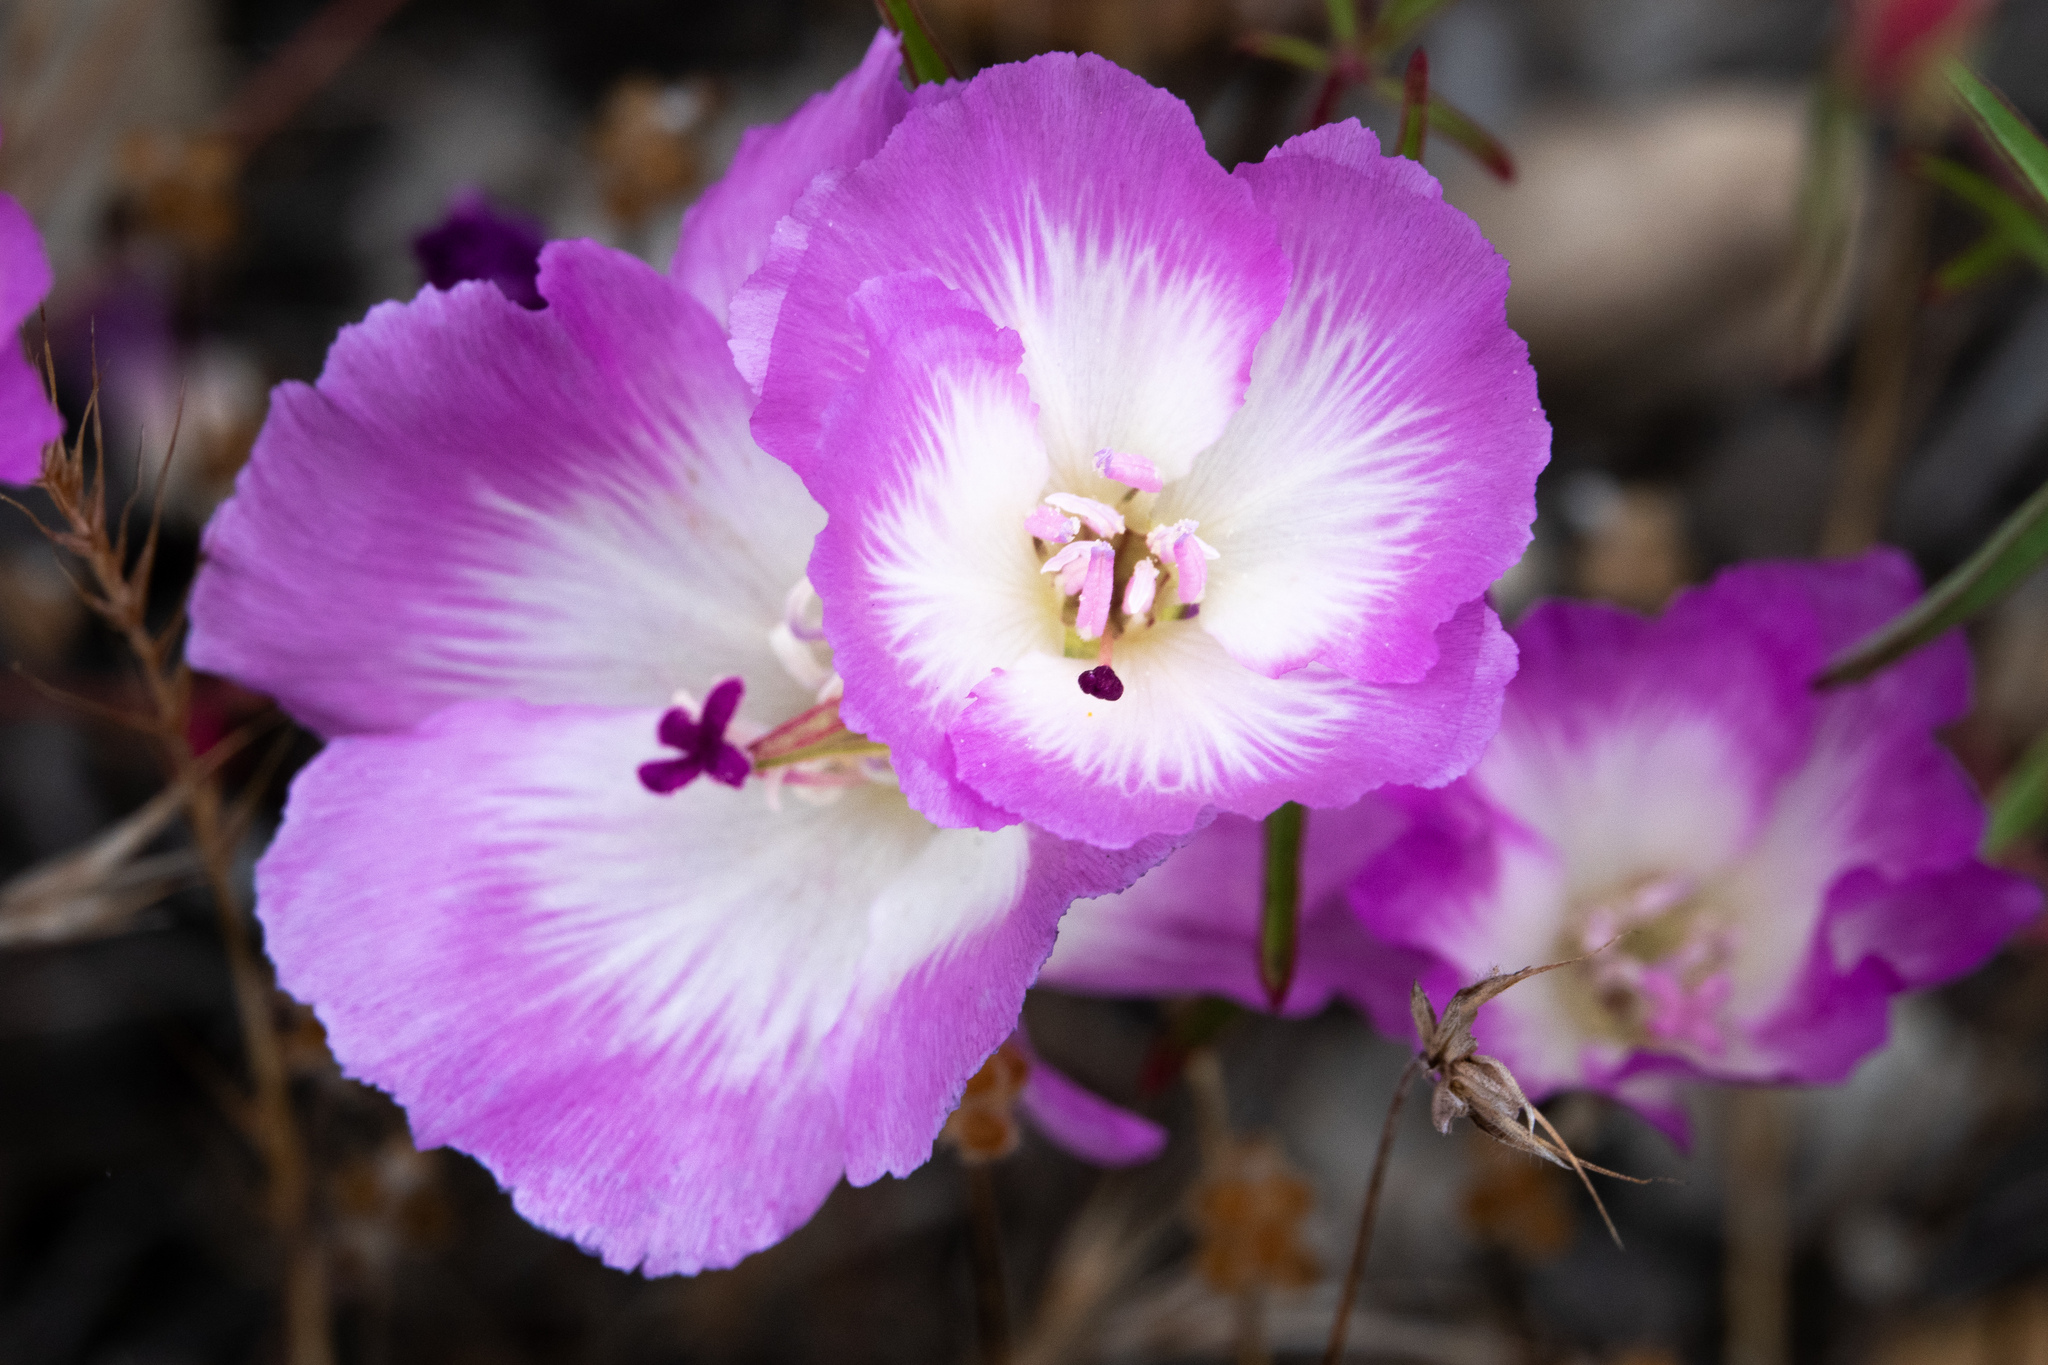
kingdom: Plantae
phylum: Tracheophyta
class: Magnoliopsida
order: Myrtales
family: Onagraceae
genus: Clarkia
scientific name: Clarkia speciosa
